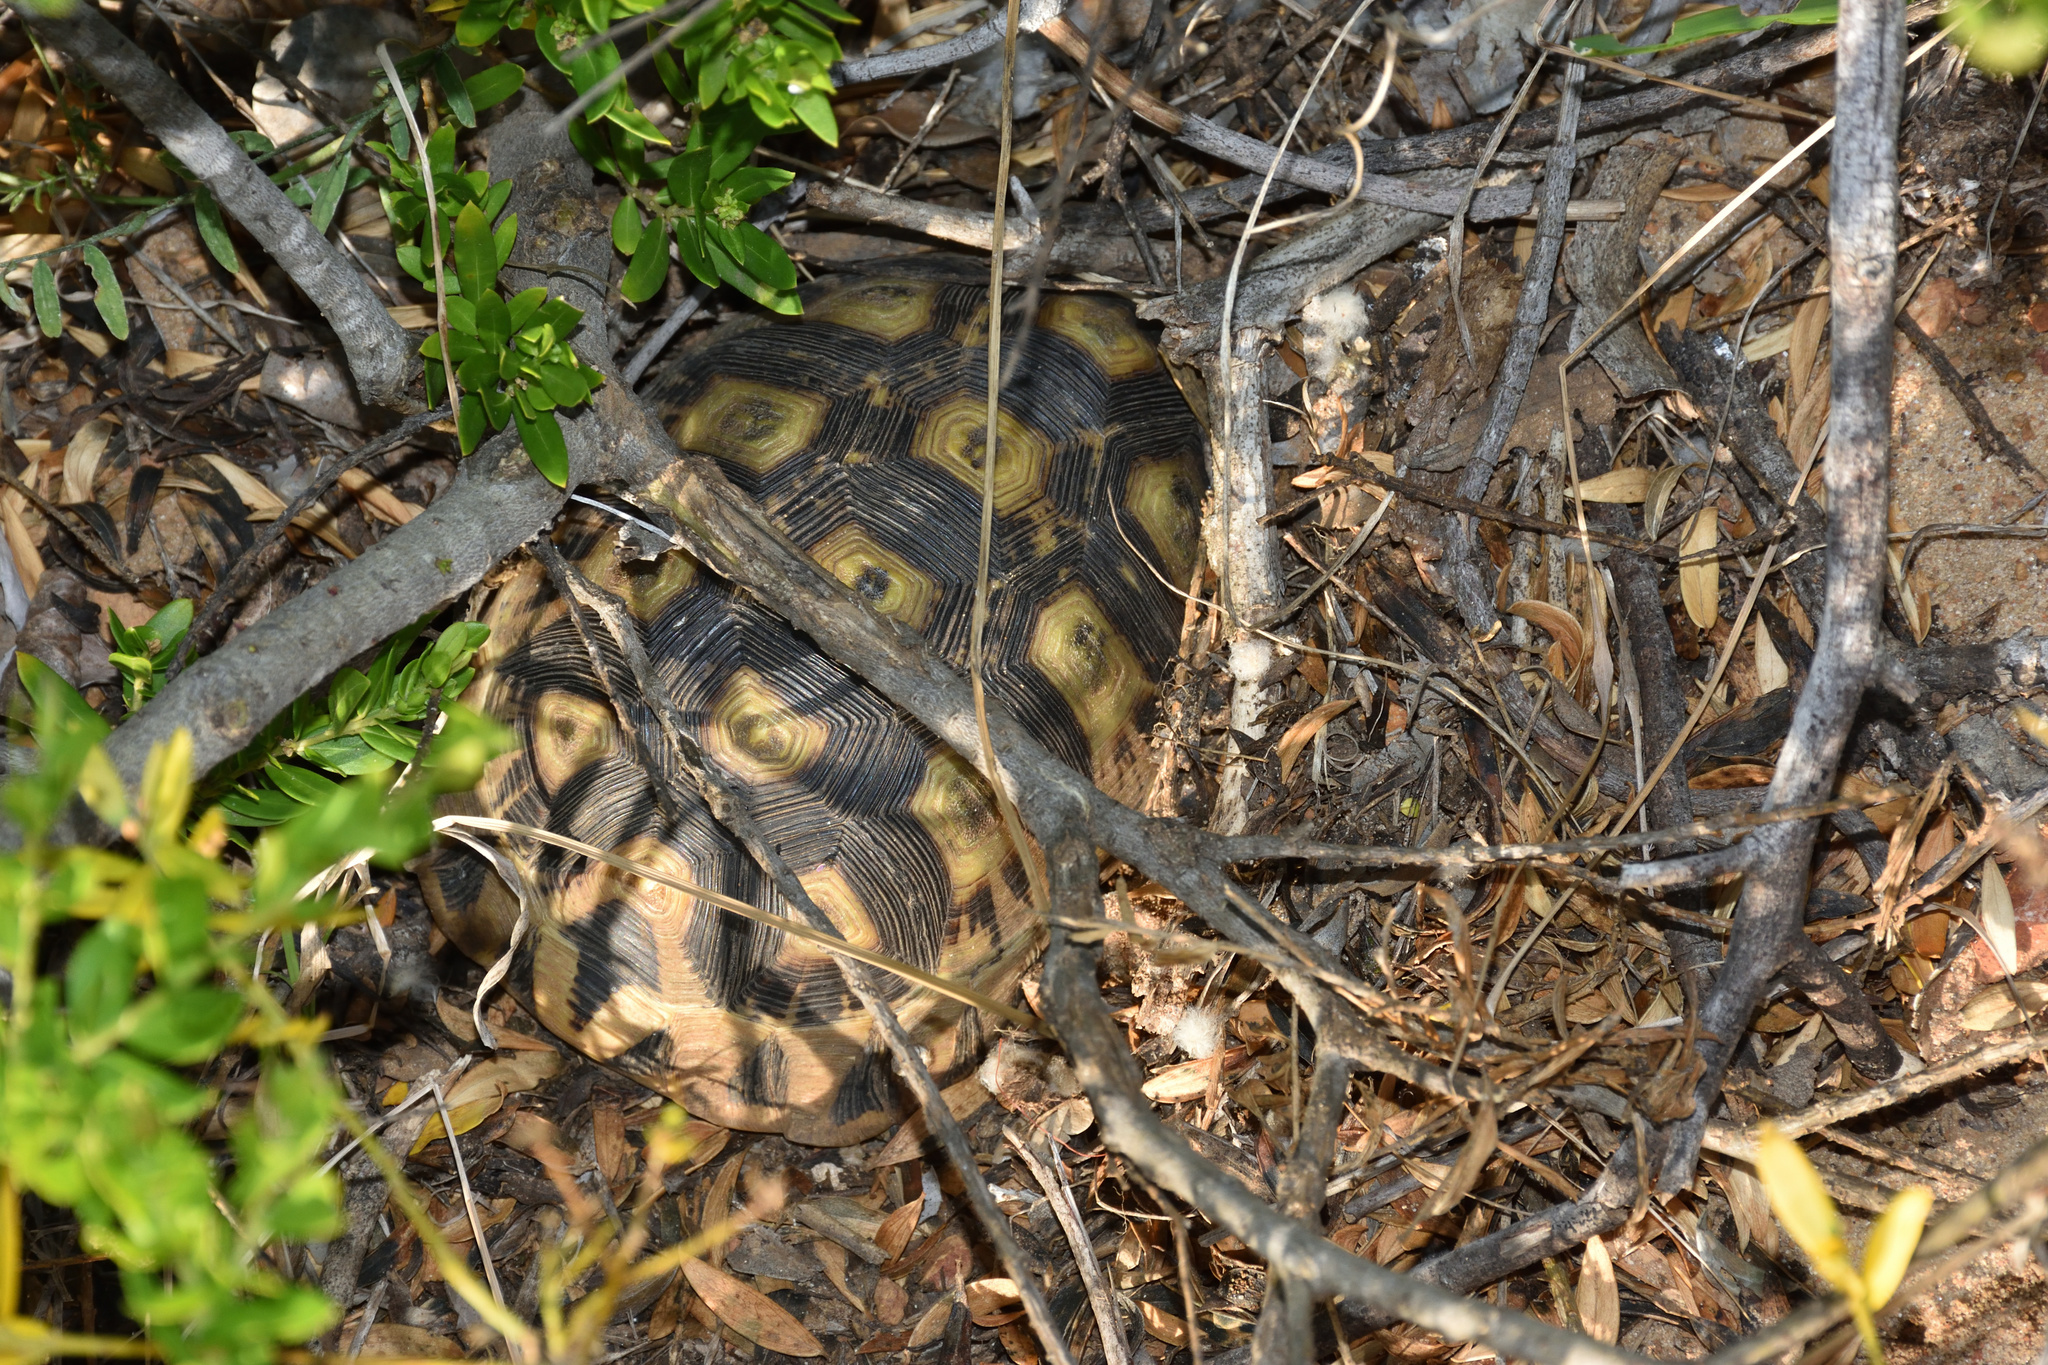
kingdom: Animalia
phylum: Chordata
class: Testudines
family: Testudinidae
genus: Chersina
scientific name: Chersina angulata
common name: South african bowsprit tortoise
